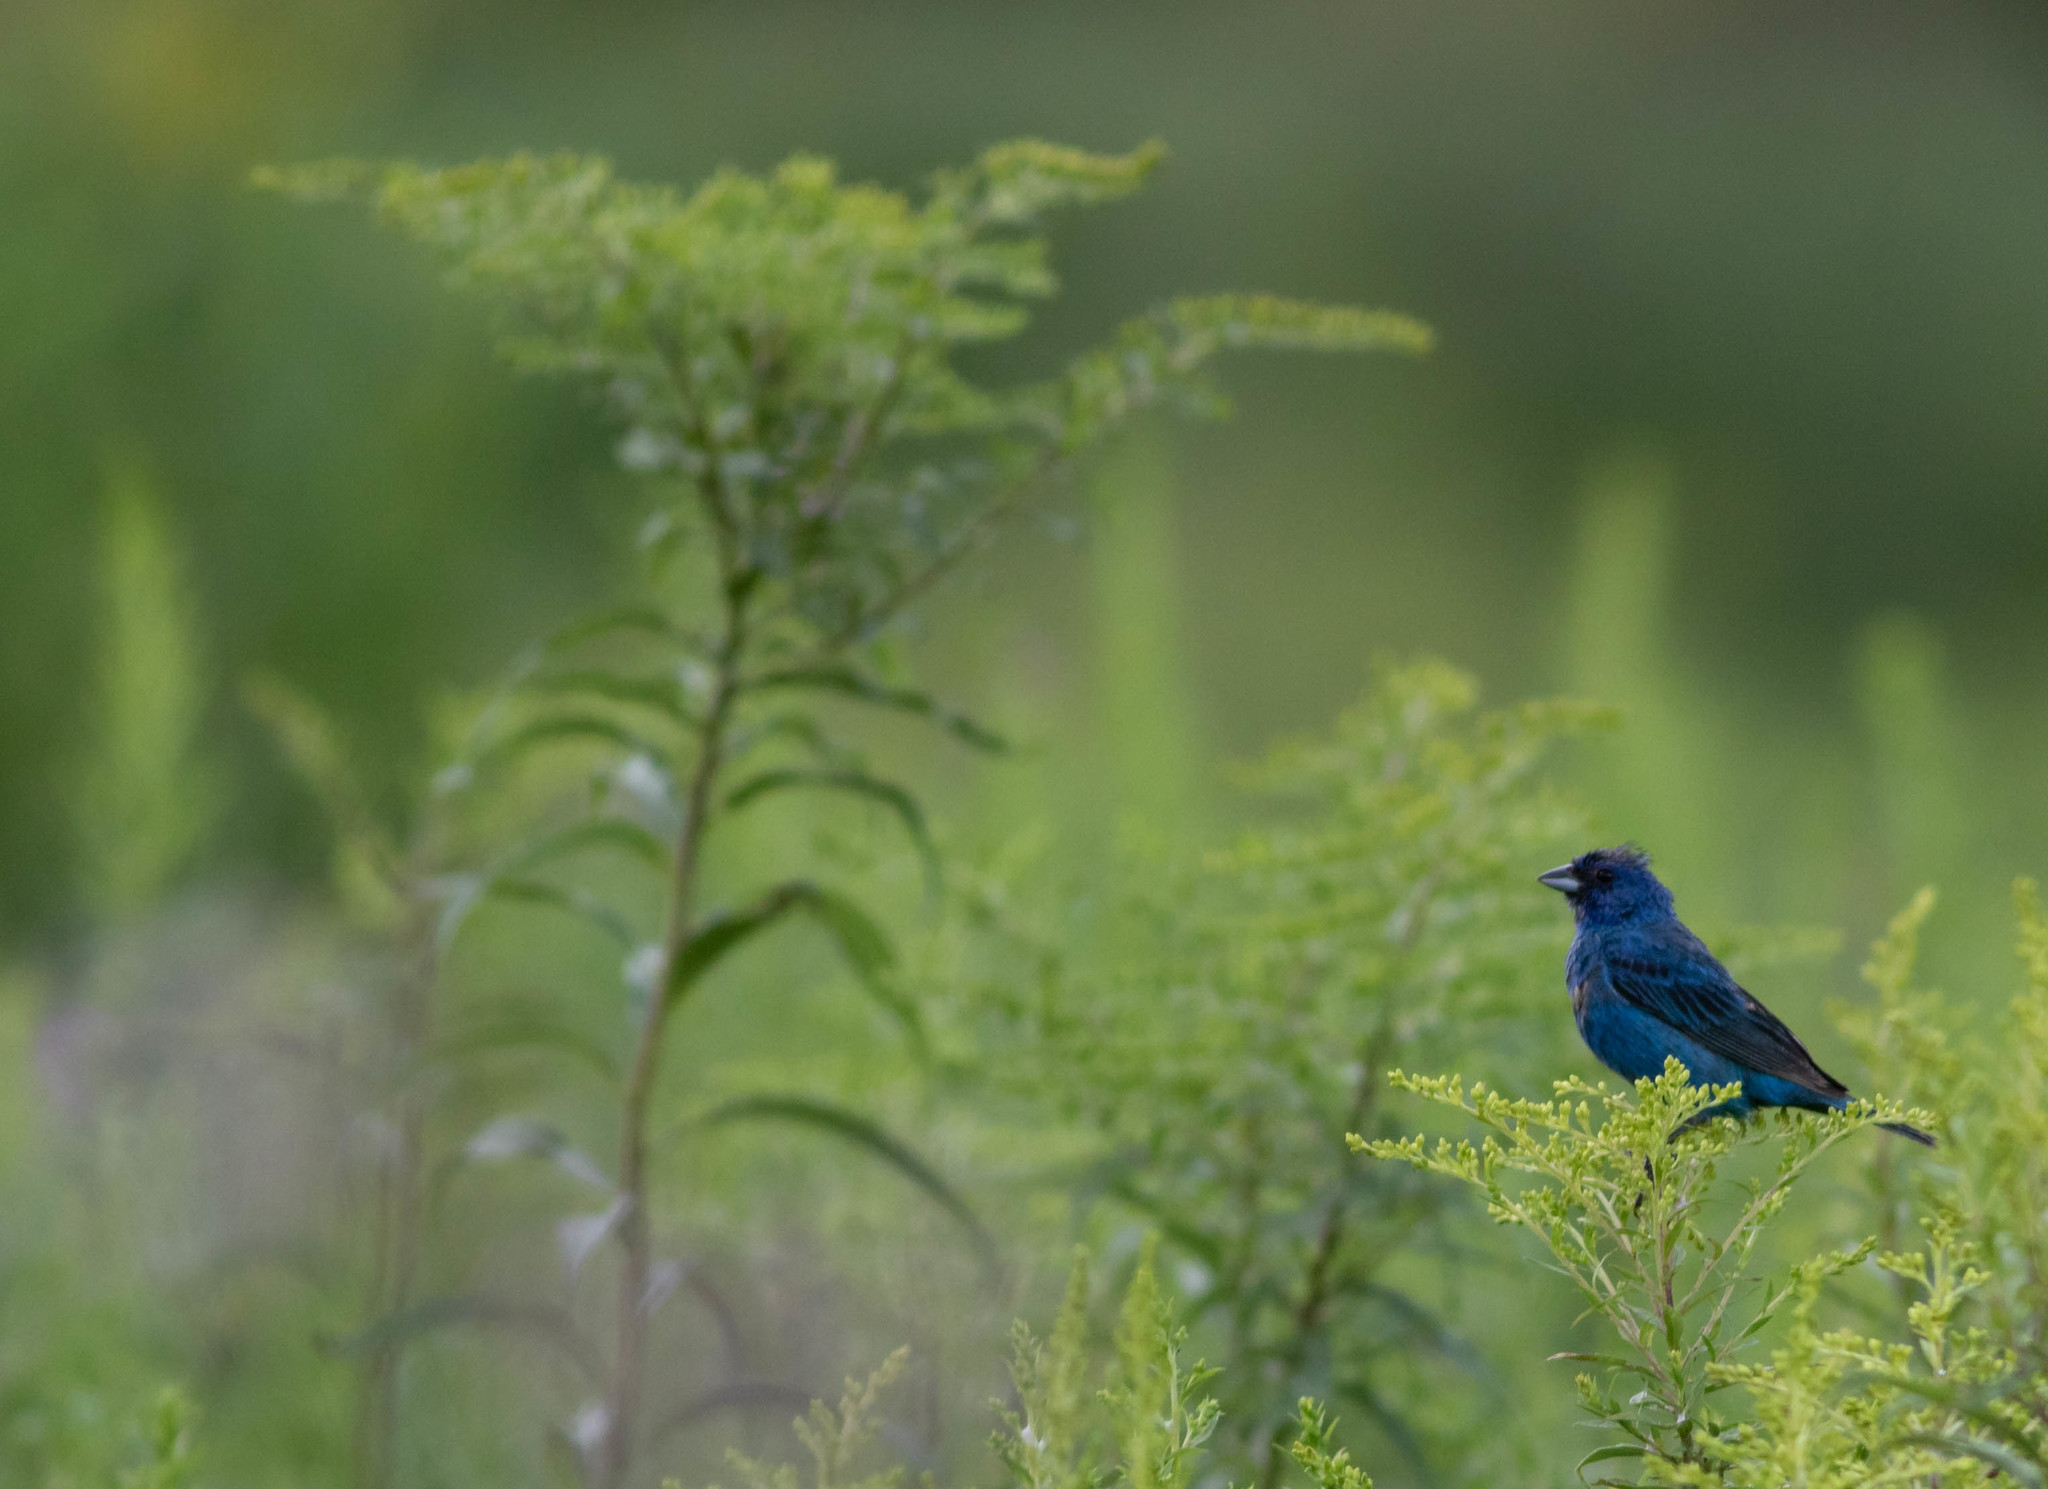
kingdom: Animalia
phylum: Chordata
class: Aves
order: Passeriformes
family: Cardinalidae
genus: Passerina
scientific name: Passerina cyanea
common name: Indigo bunting
